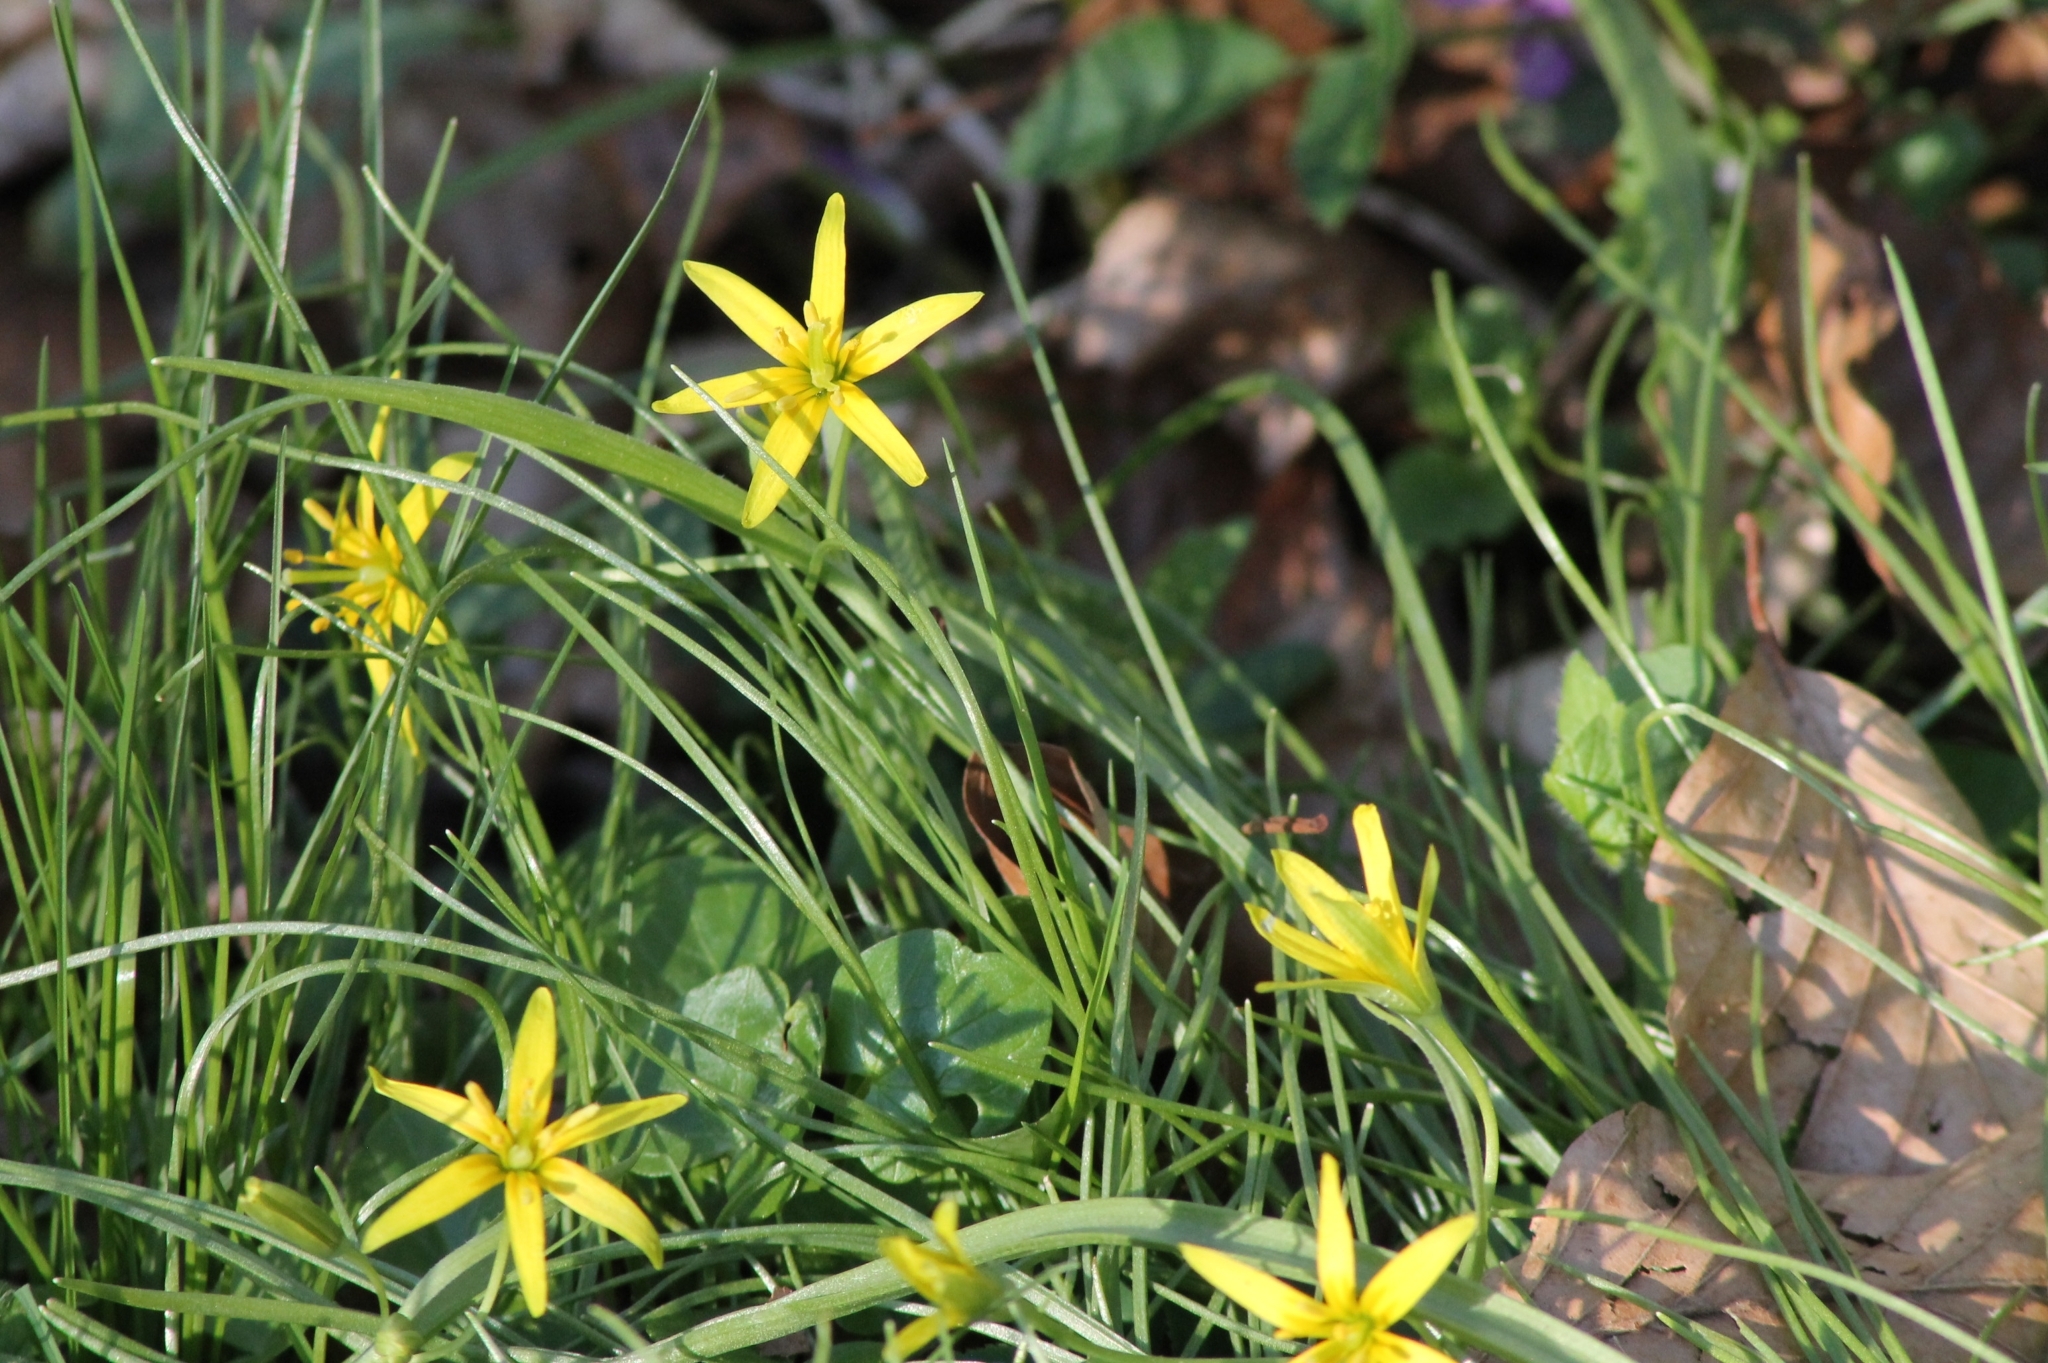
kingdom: Plantae
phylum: Tracheophyta
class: Liliopsida
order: Liliales
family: Liliaceae
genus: Gagea
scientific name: Gagea lutea
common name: Yellow star-of-bethlehem
